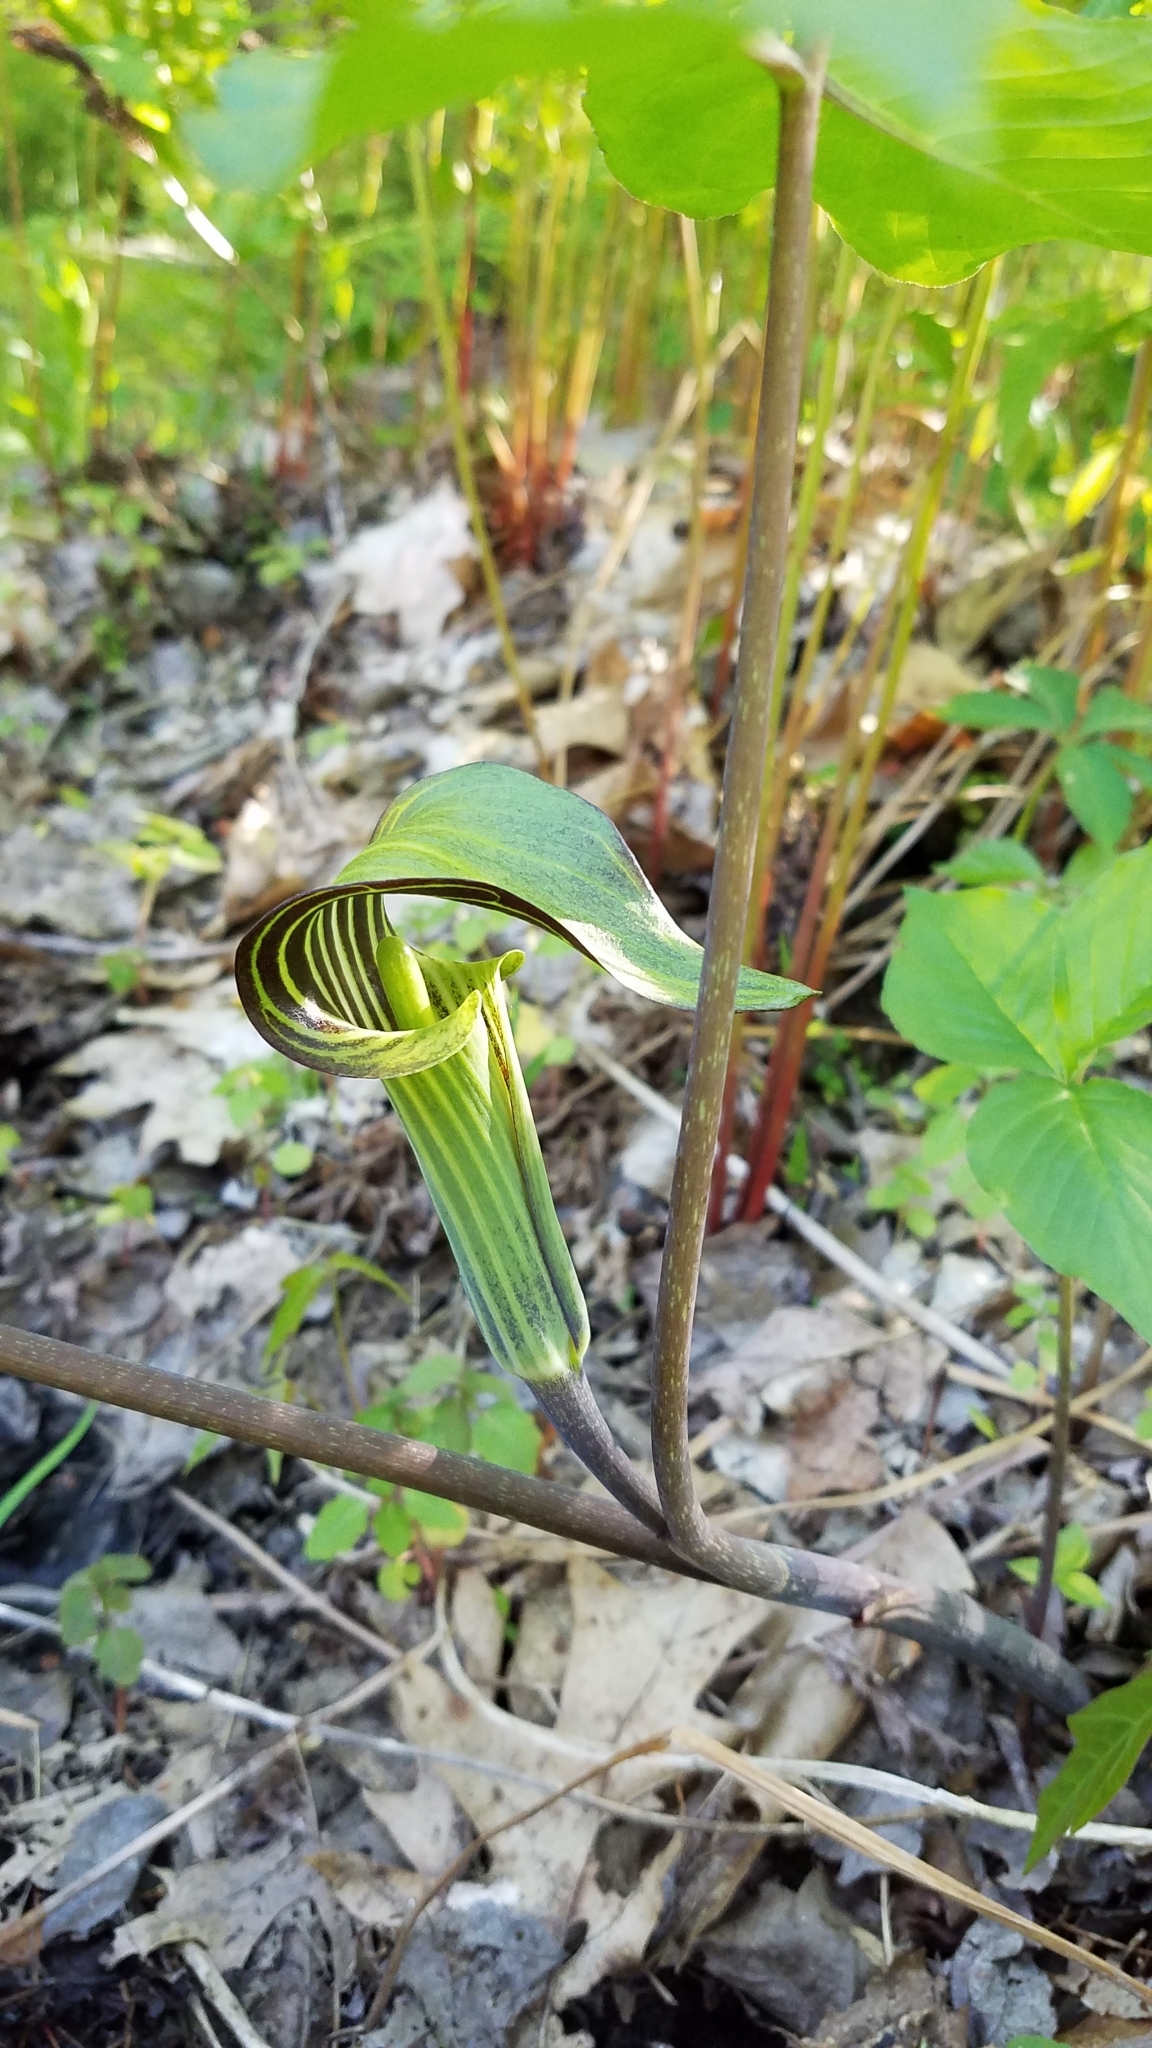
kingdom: Plantae
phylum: Tracheophyta
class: Liliopsida
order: Alismatales
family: Araceae
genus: Arisaema
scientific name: Arisaema triphyllum
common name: Jack-in-the-pulpit
